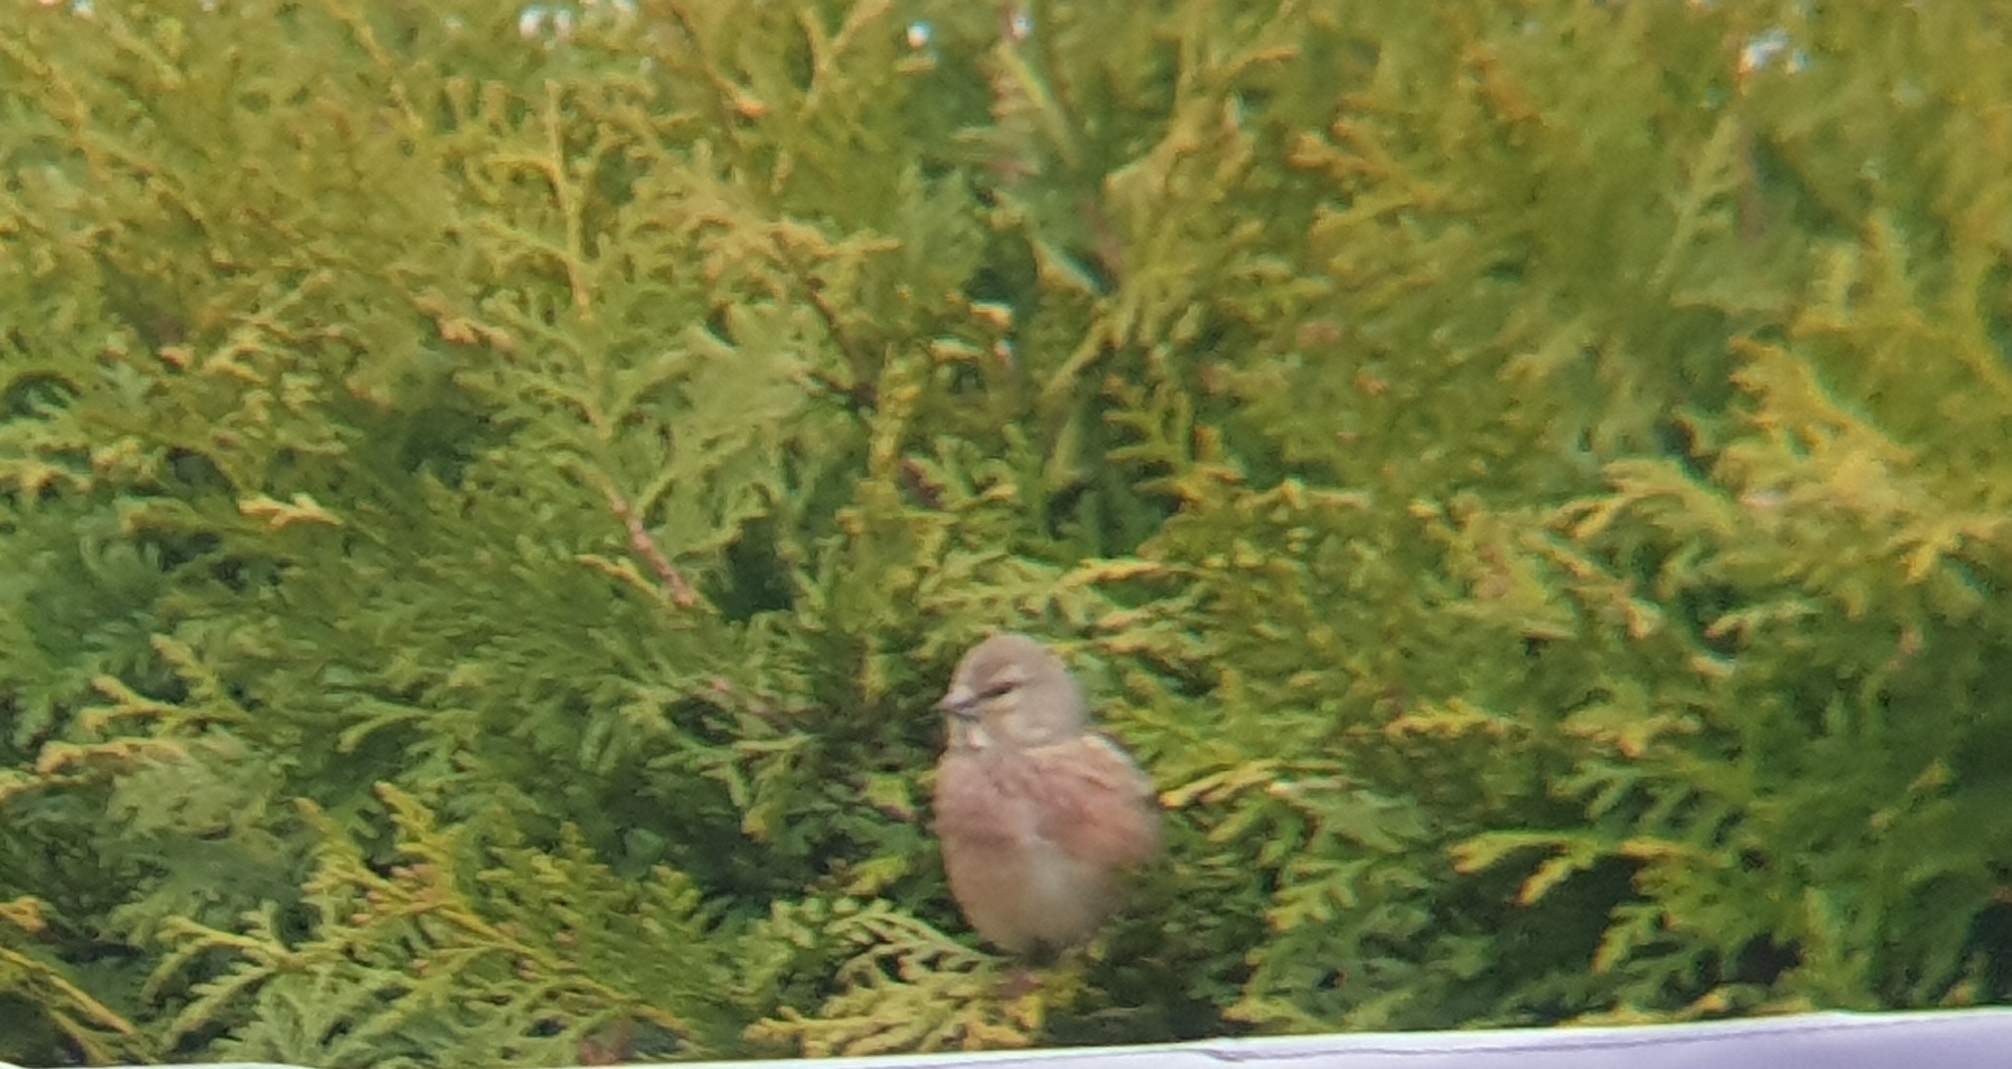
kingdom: Animalia
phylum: Chordata
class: Aves
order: Passeriformes
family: Fringillidae
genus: Linaria
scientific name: Linaria cannabina
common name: Common linnet
